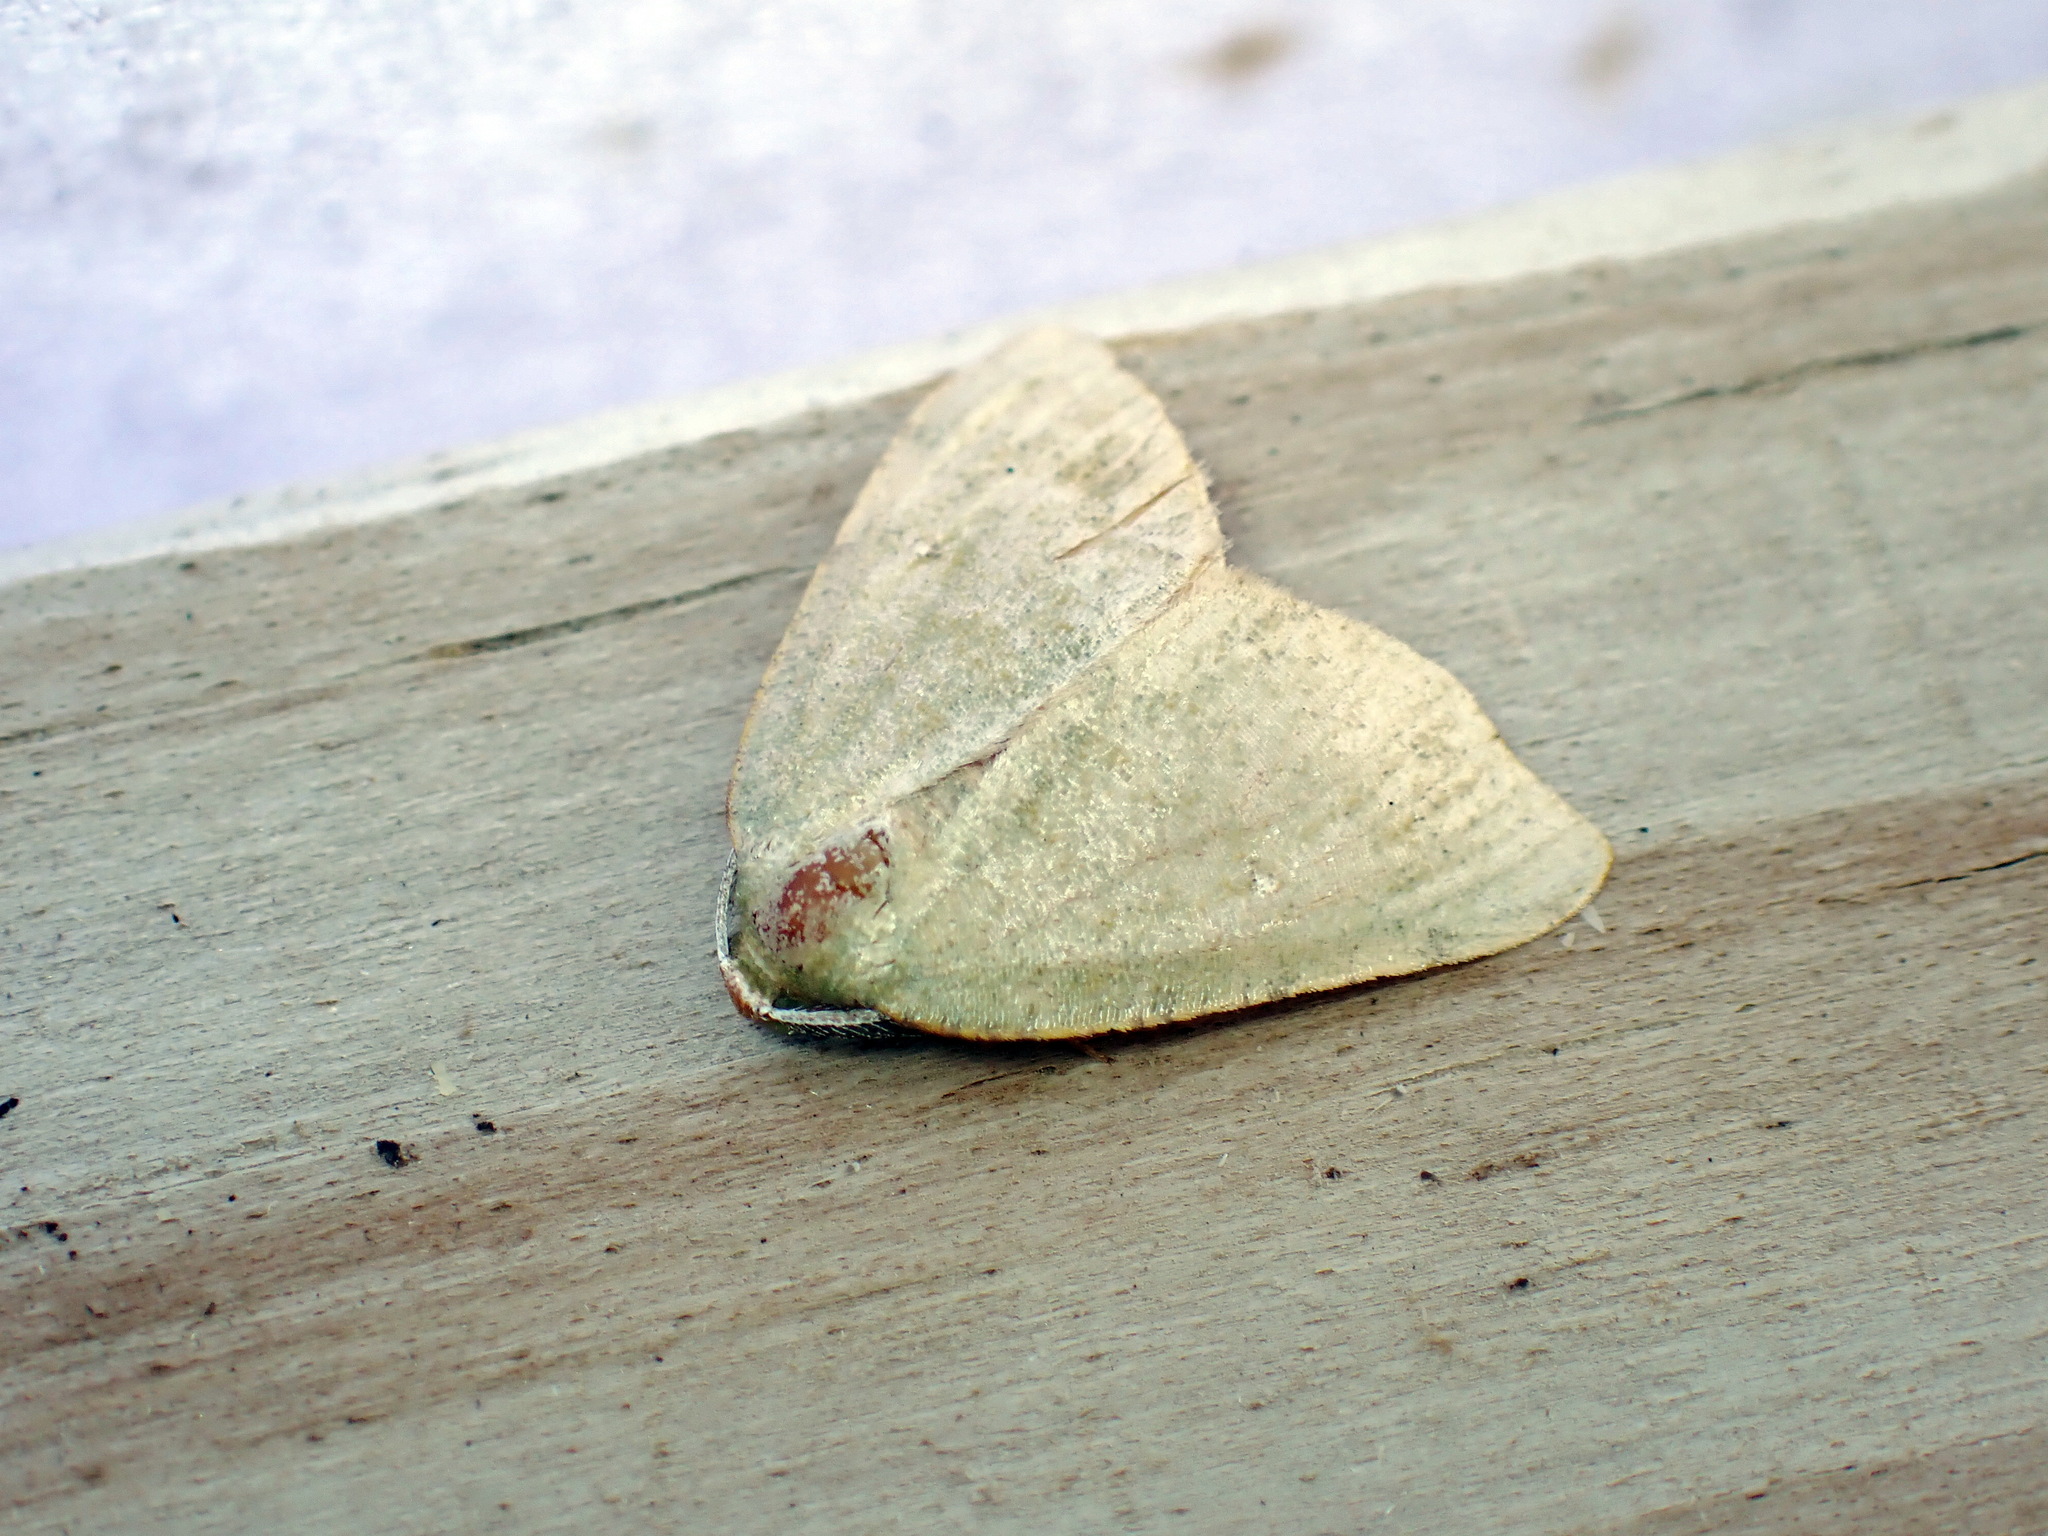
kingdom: Animalia
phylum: Arthropoda
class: Insecta
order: Lepidoptera
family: Geometridae
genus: Chloraspilates
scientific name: Chloraspilates bicoloraria
